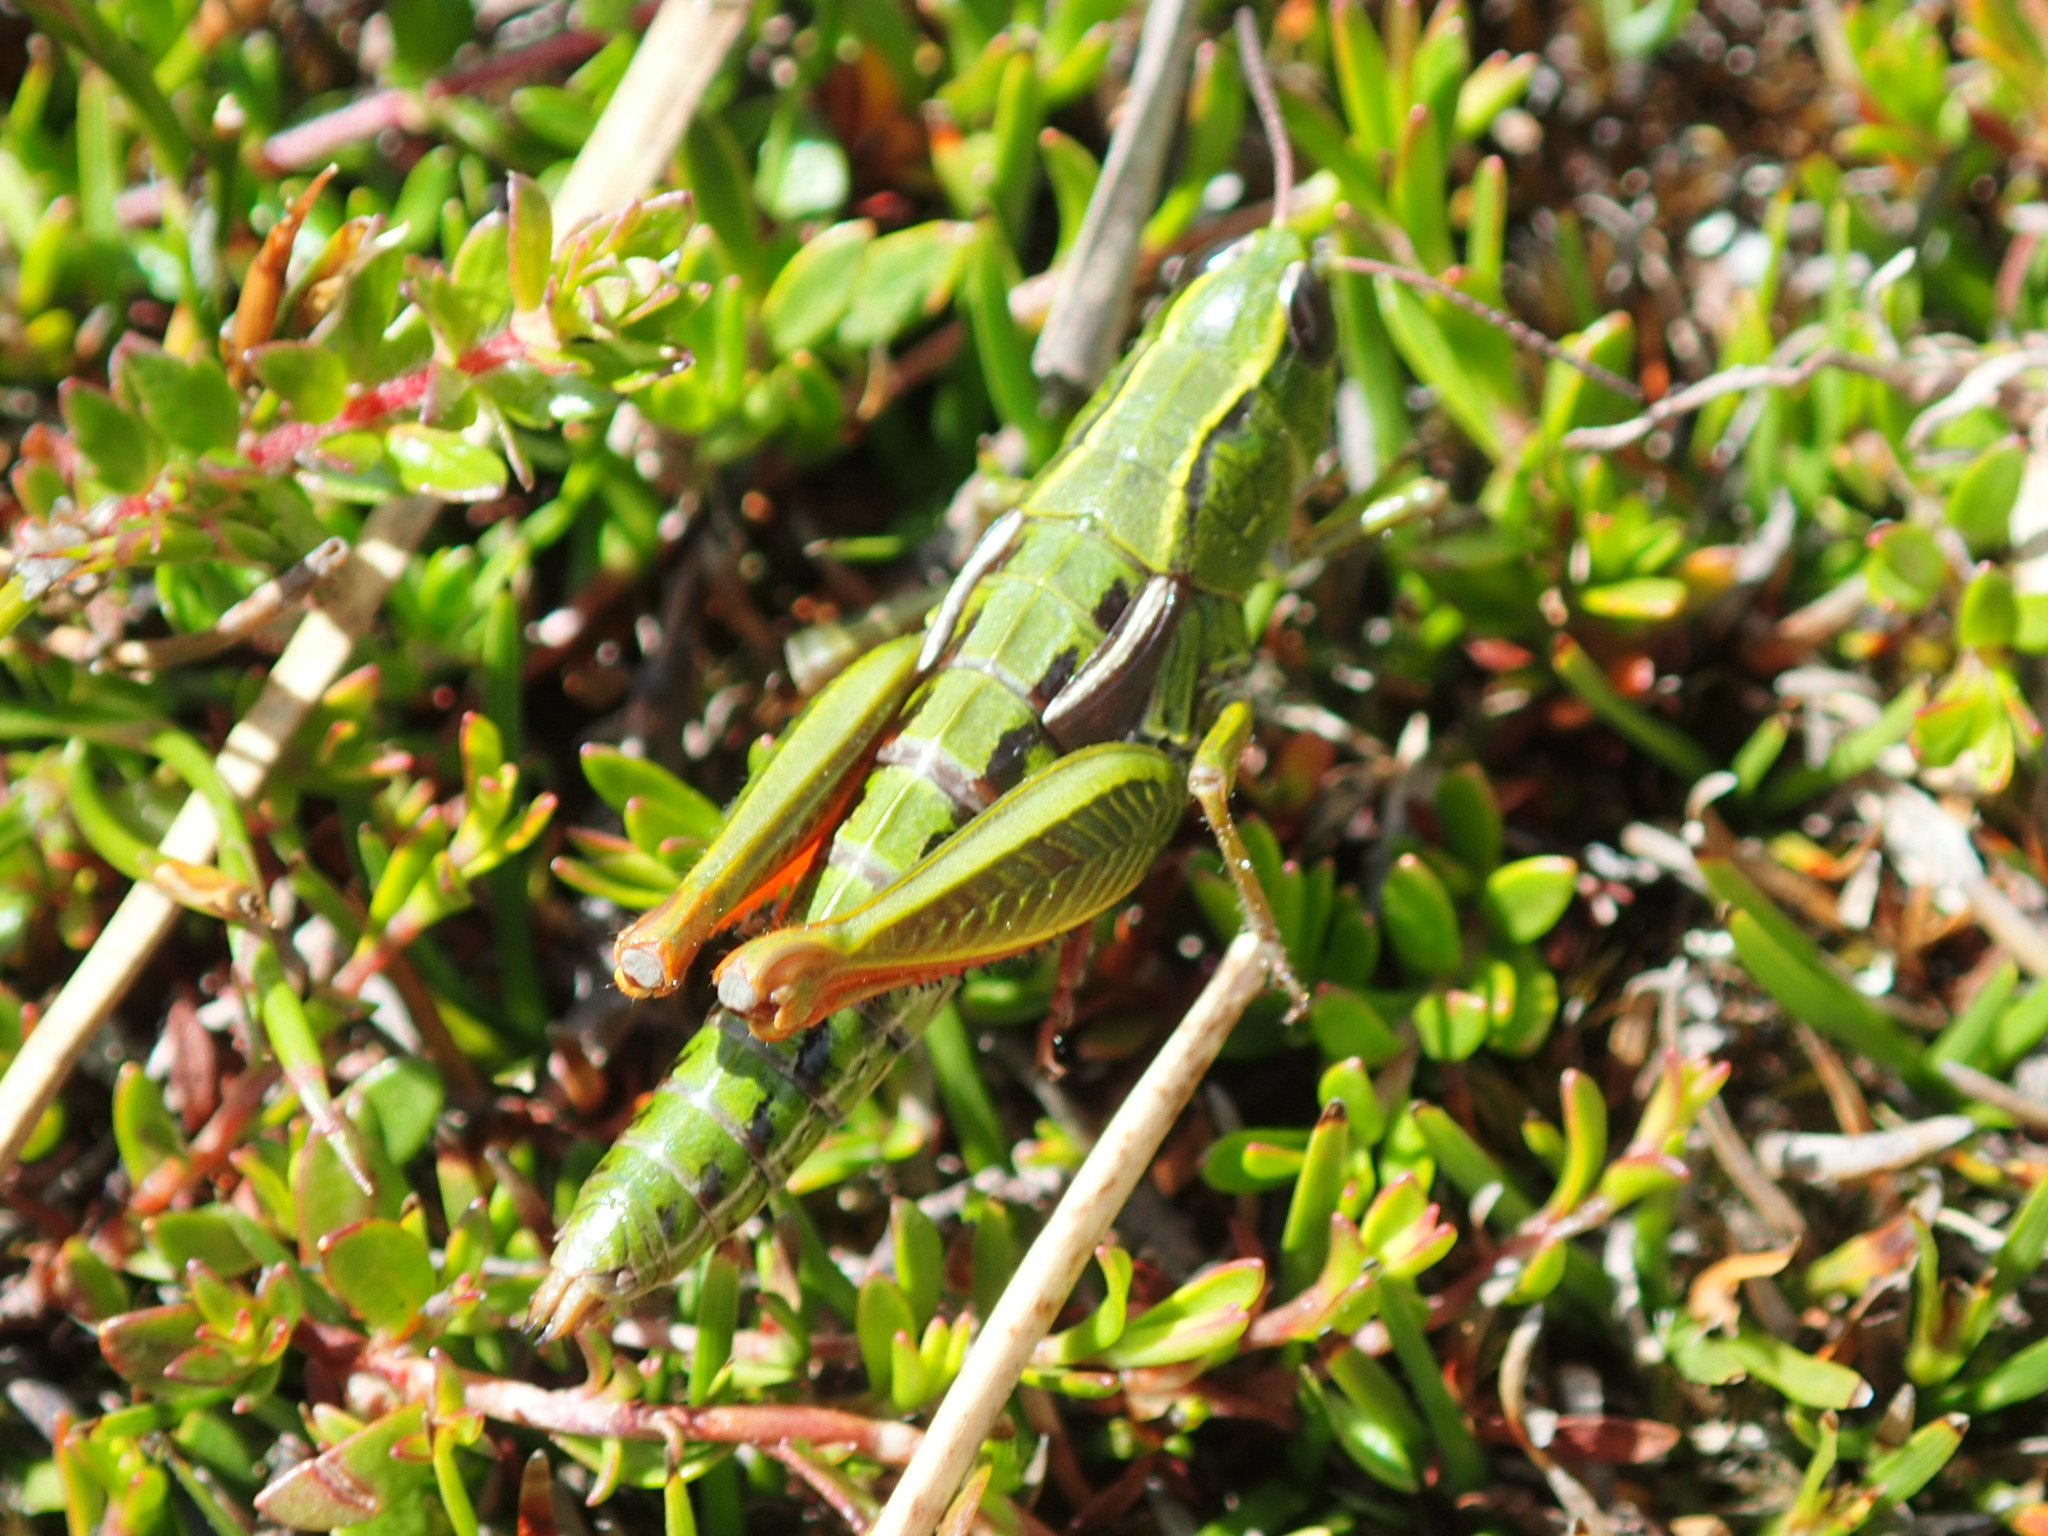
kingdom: Animalia
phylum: Arthropoda
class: Insecta
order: Orthoptera
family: Acrididae
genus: Russalpia
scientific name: Russalpia longifurca
